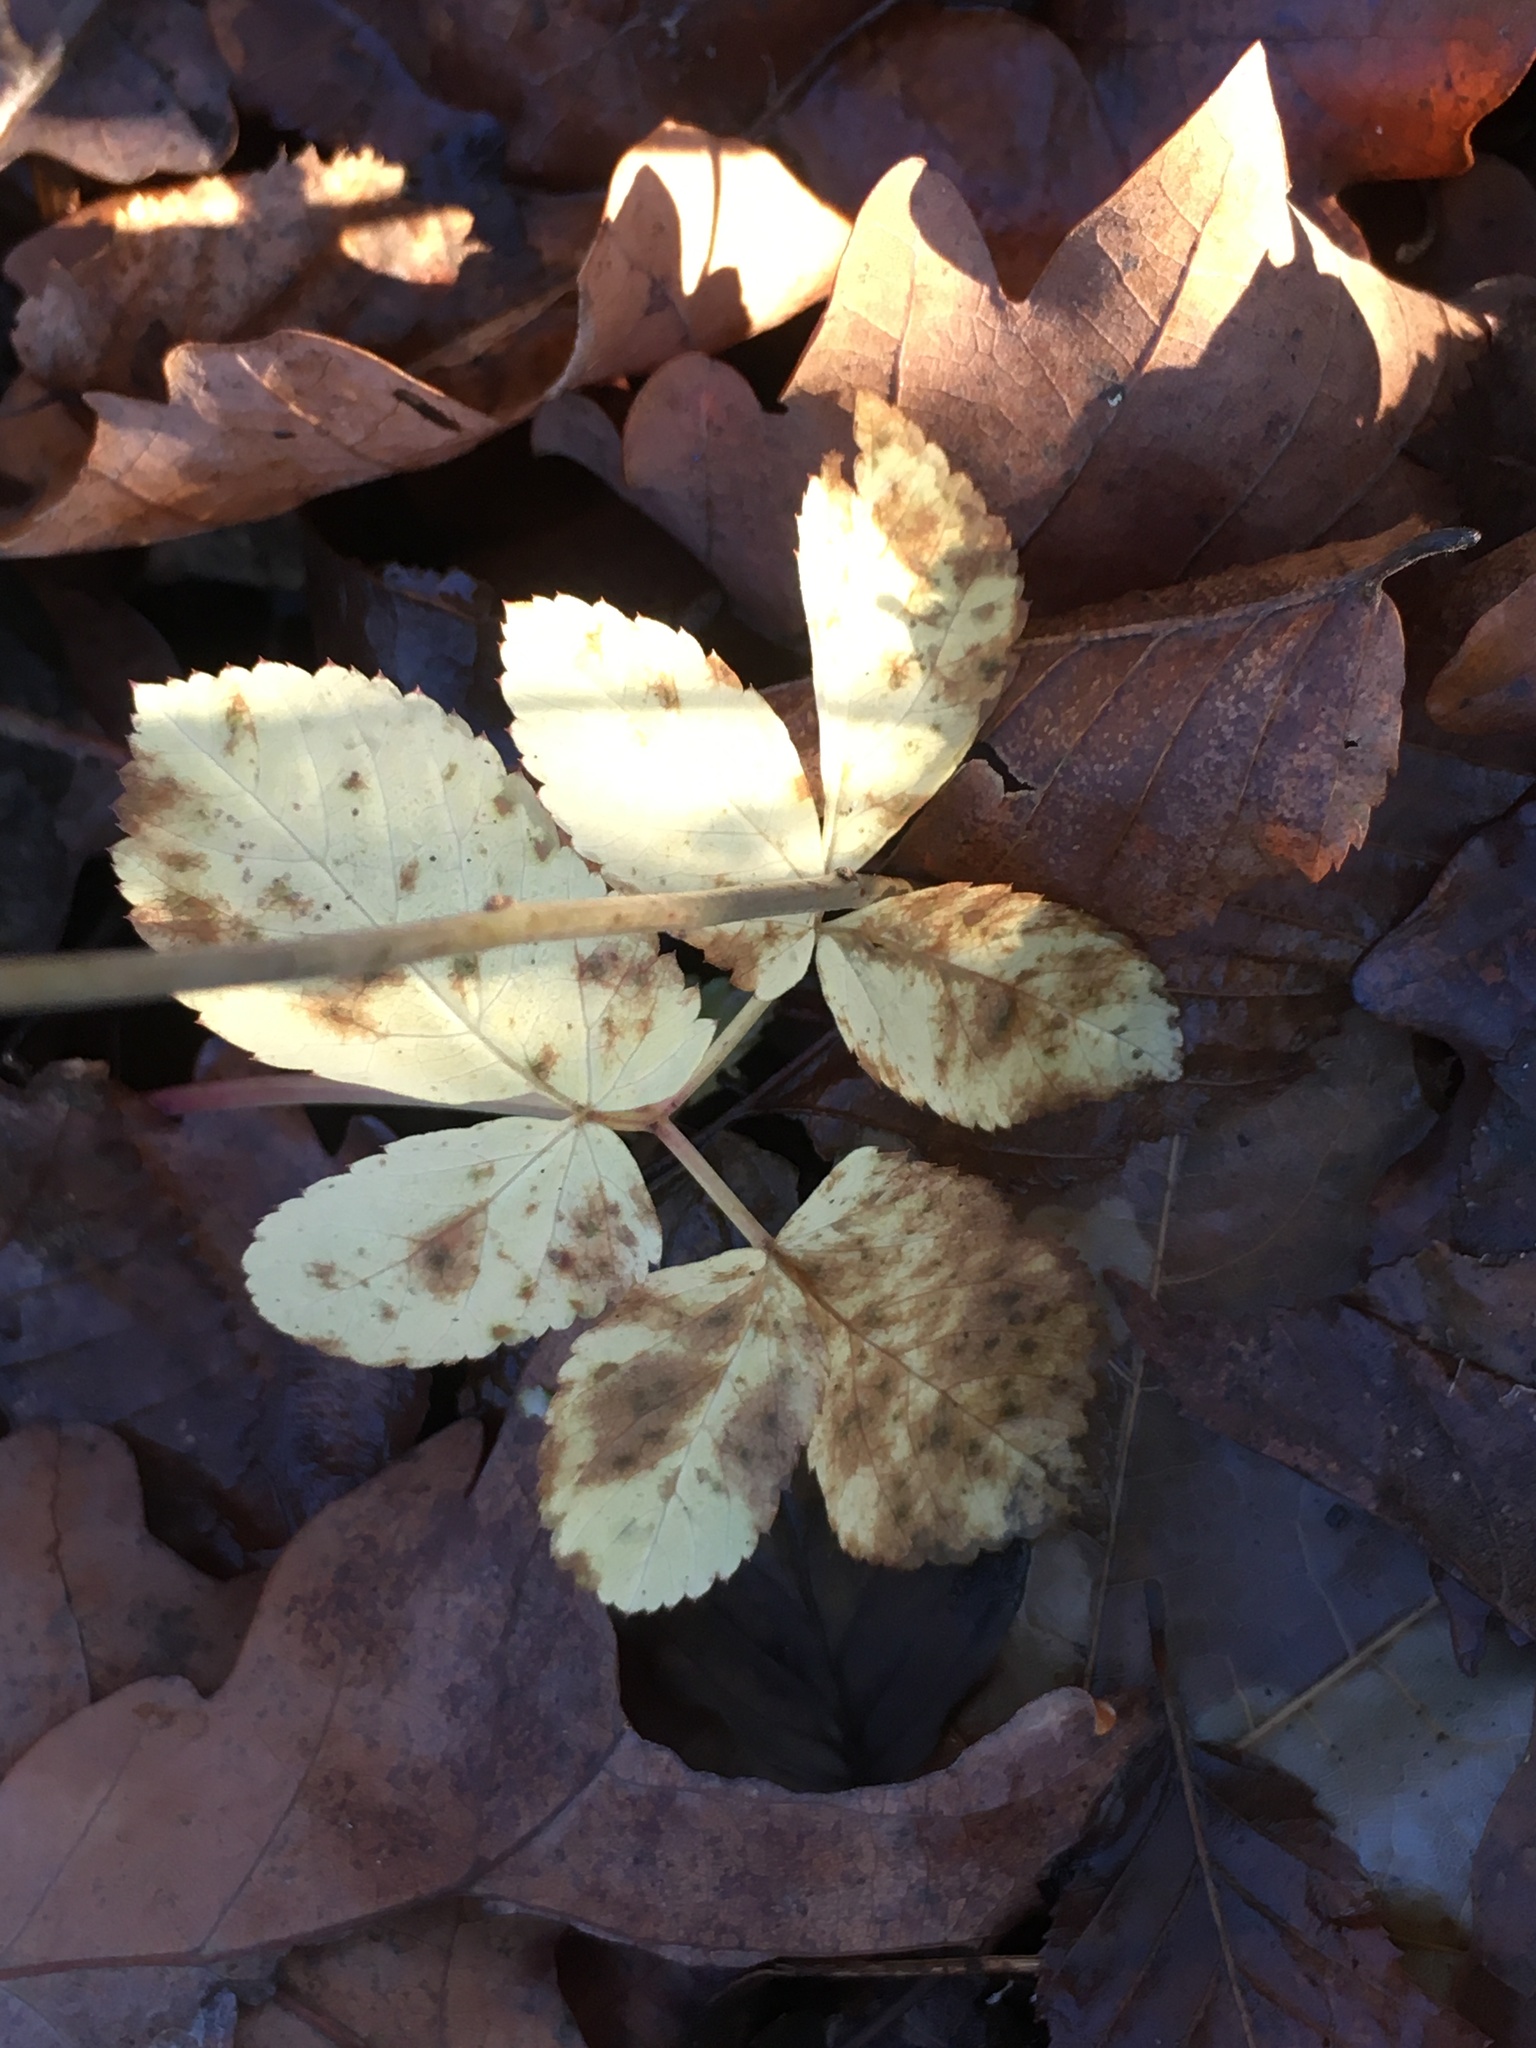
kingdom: Plantae
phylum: Tracheophyta
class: Magnoliopsida
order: Apiales
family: Apiaceae
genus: Aegopodium
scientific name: Aegopodium podagraria
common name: Ground-elder
